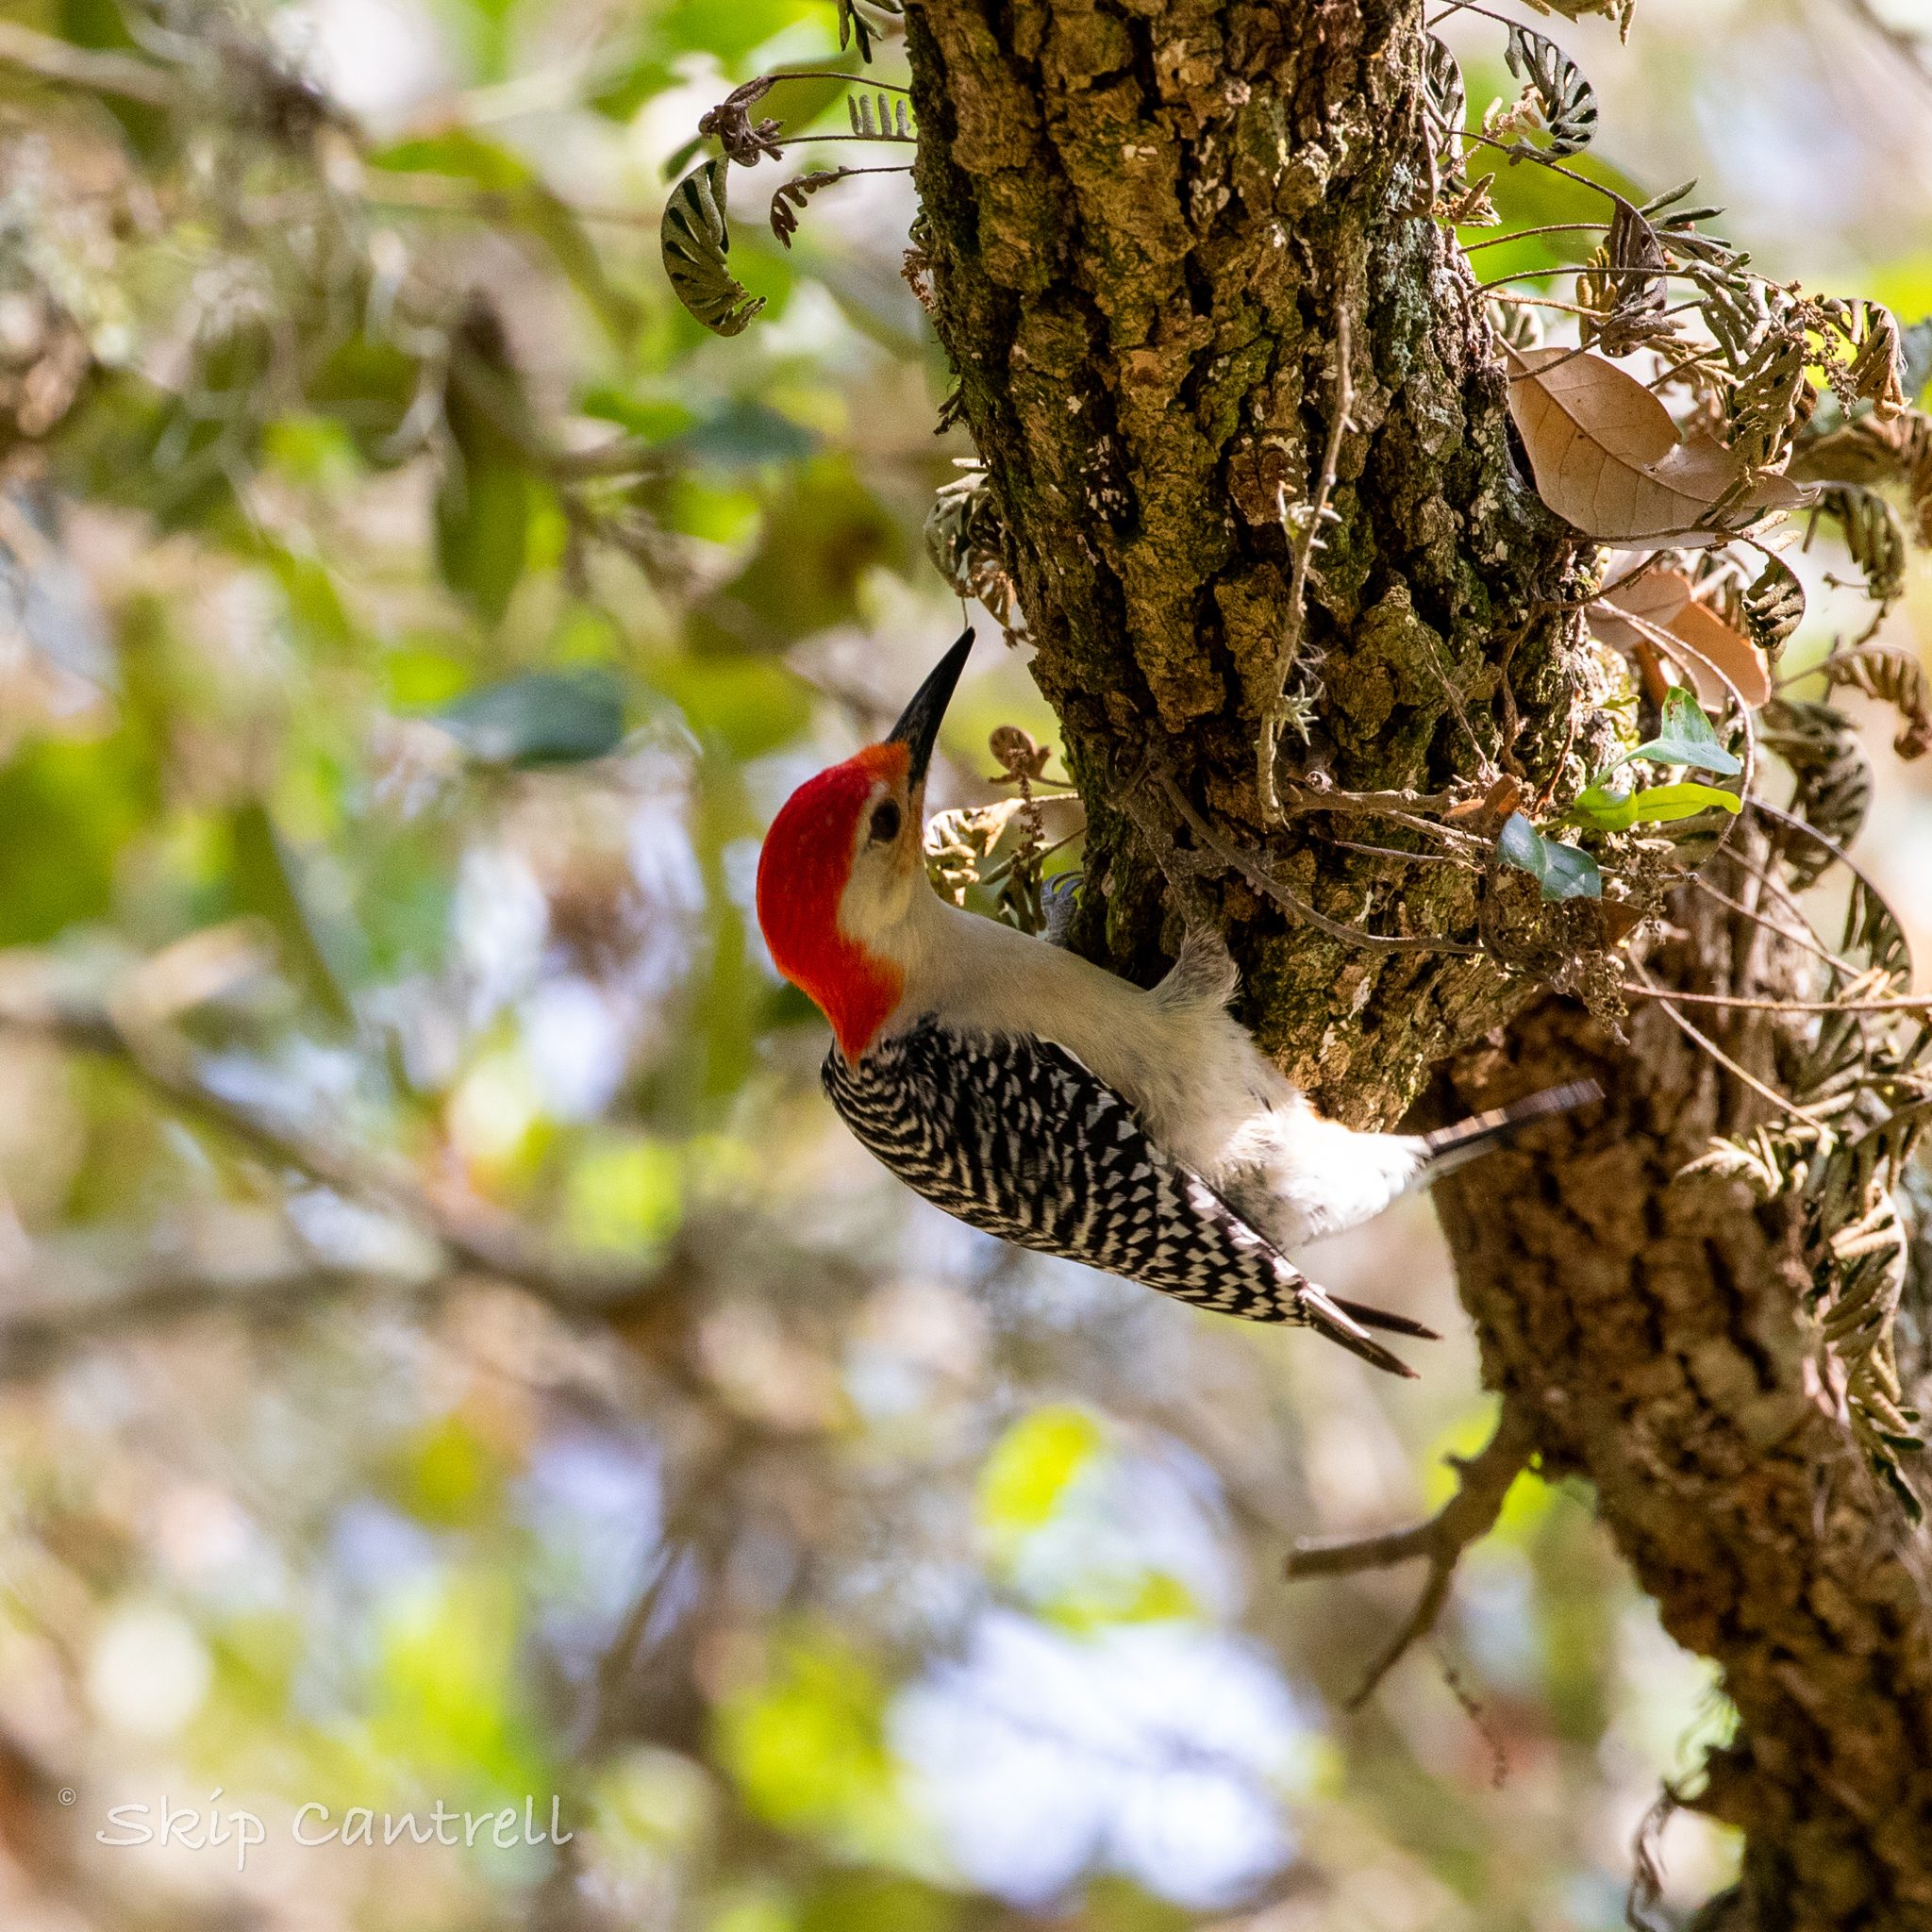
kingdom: Animalia
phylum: Chordata
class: Aves
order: Piciformes
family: Picidae
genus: Melanerpes
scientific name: Melanerpes carolinus
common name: Red-bellied woodpecker
